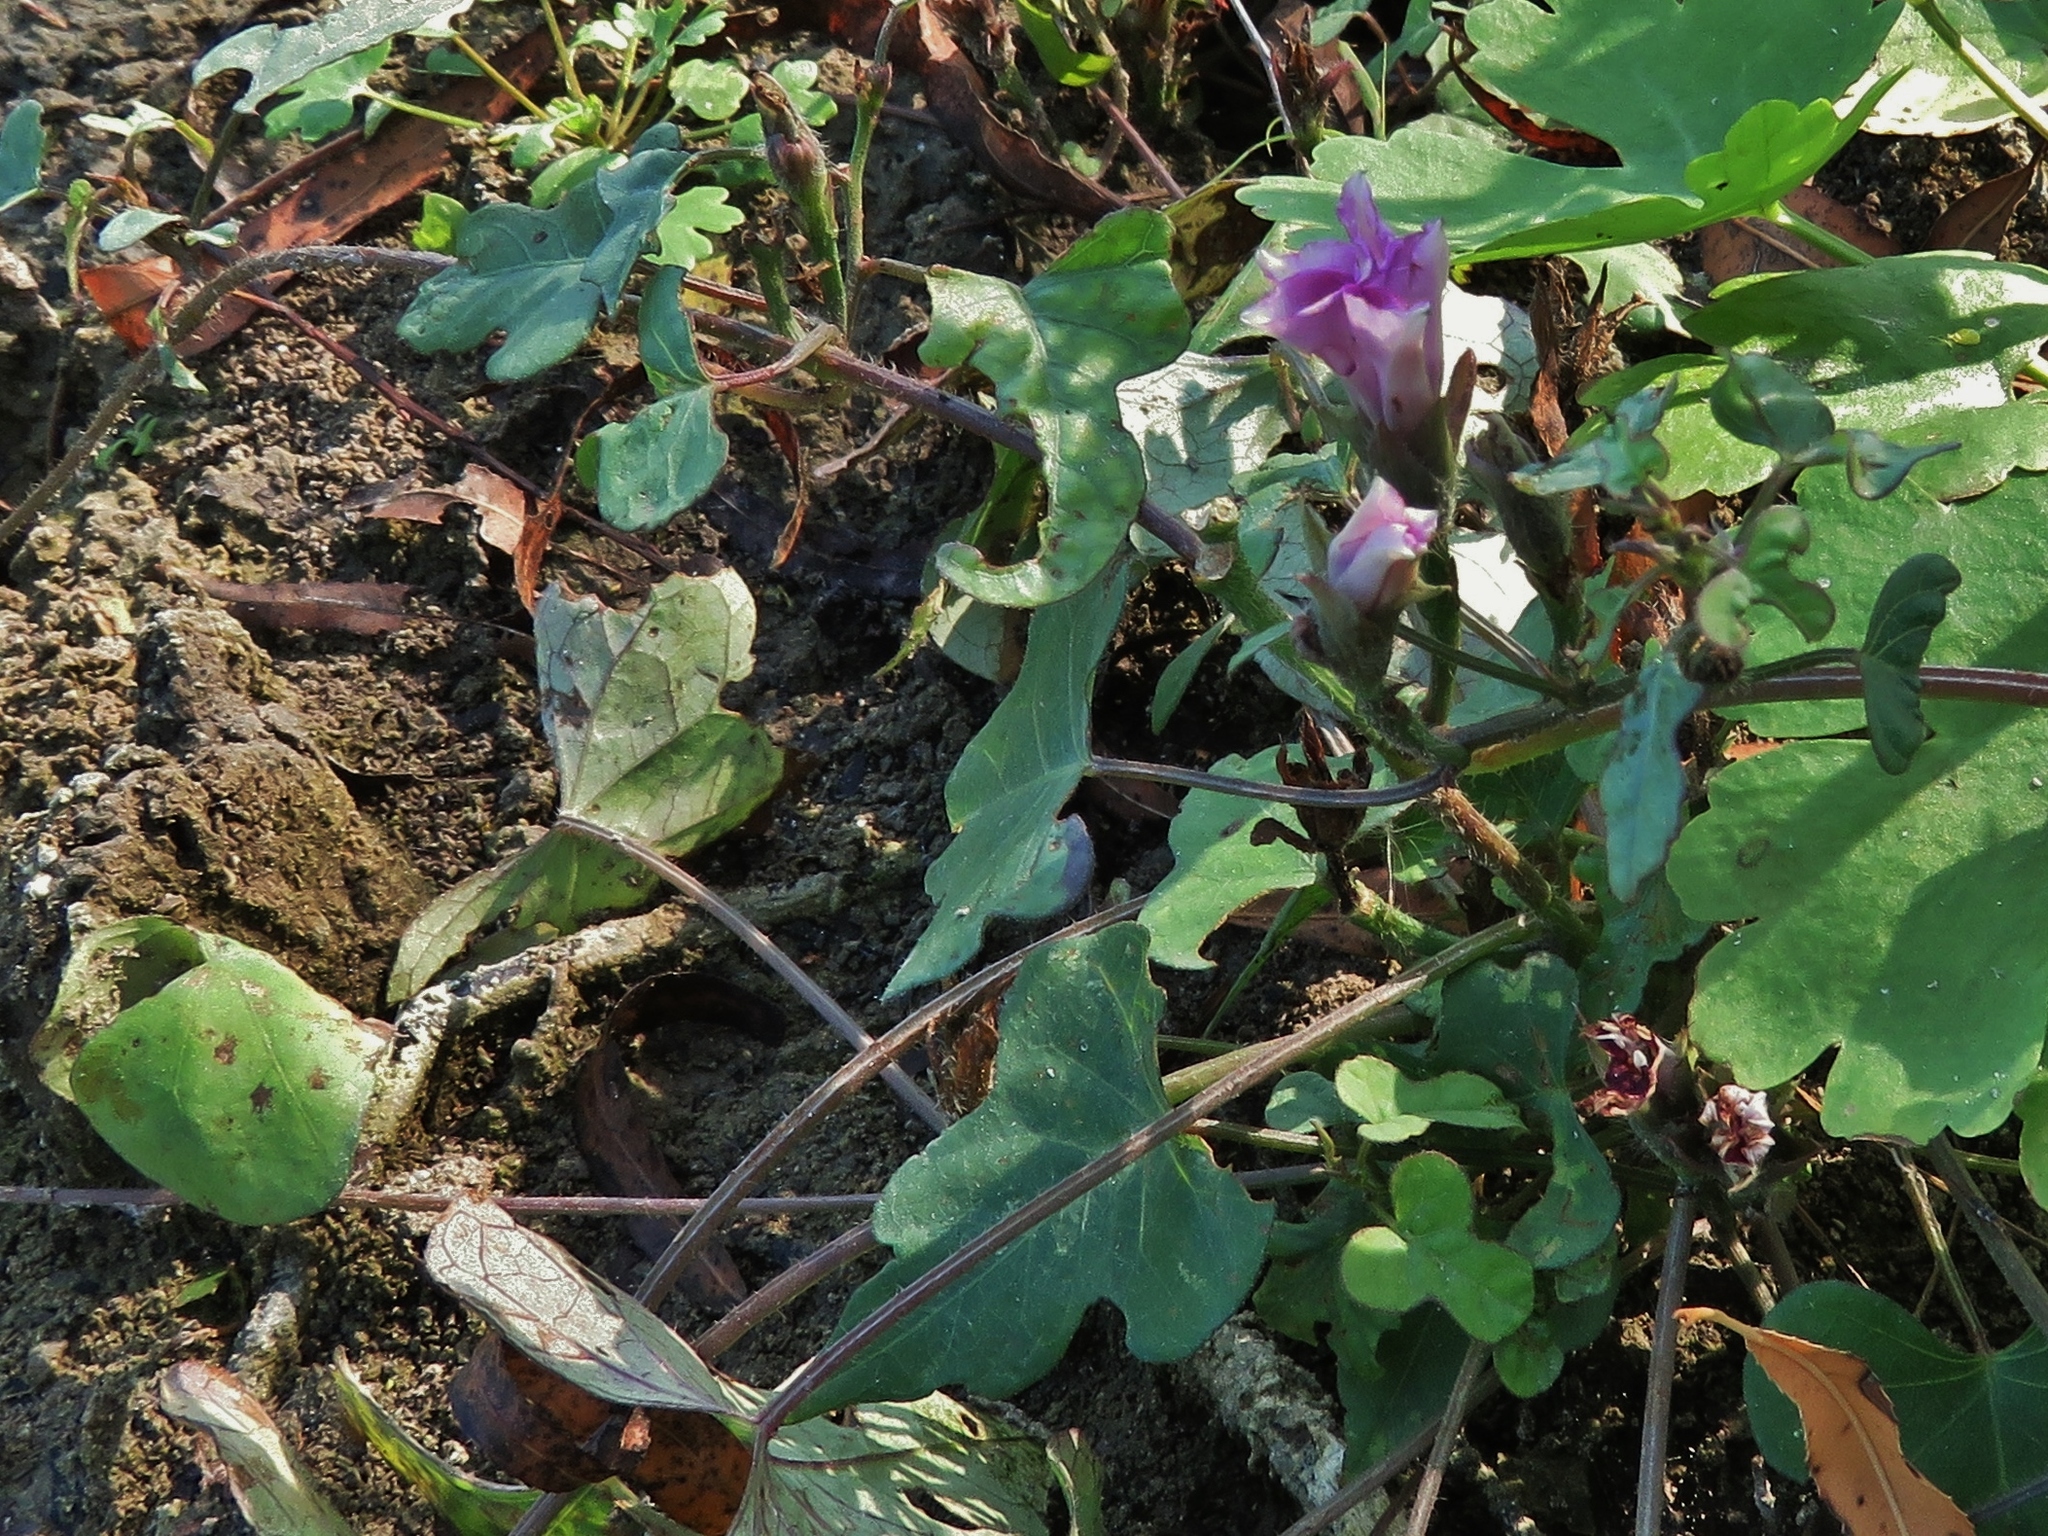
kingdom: Plantae
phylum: Tracheophyta
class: Magnoliopsida
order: Solanales
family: Convolvulaceae
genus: Ipomoea
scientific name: Ipomoea cordatotriloba
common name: Cotton morning glory
